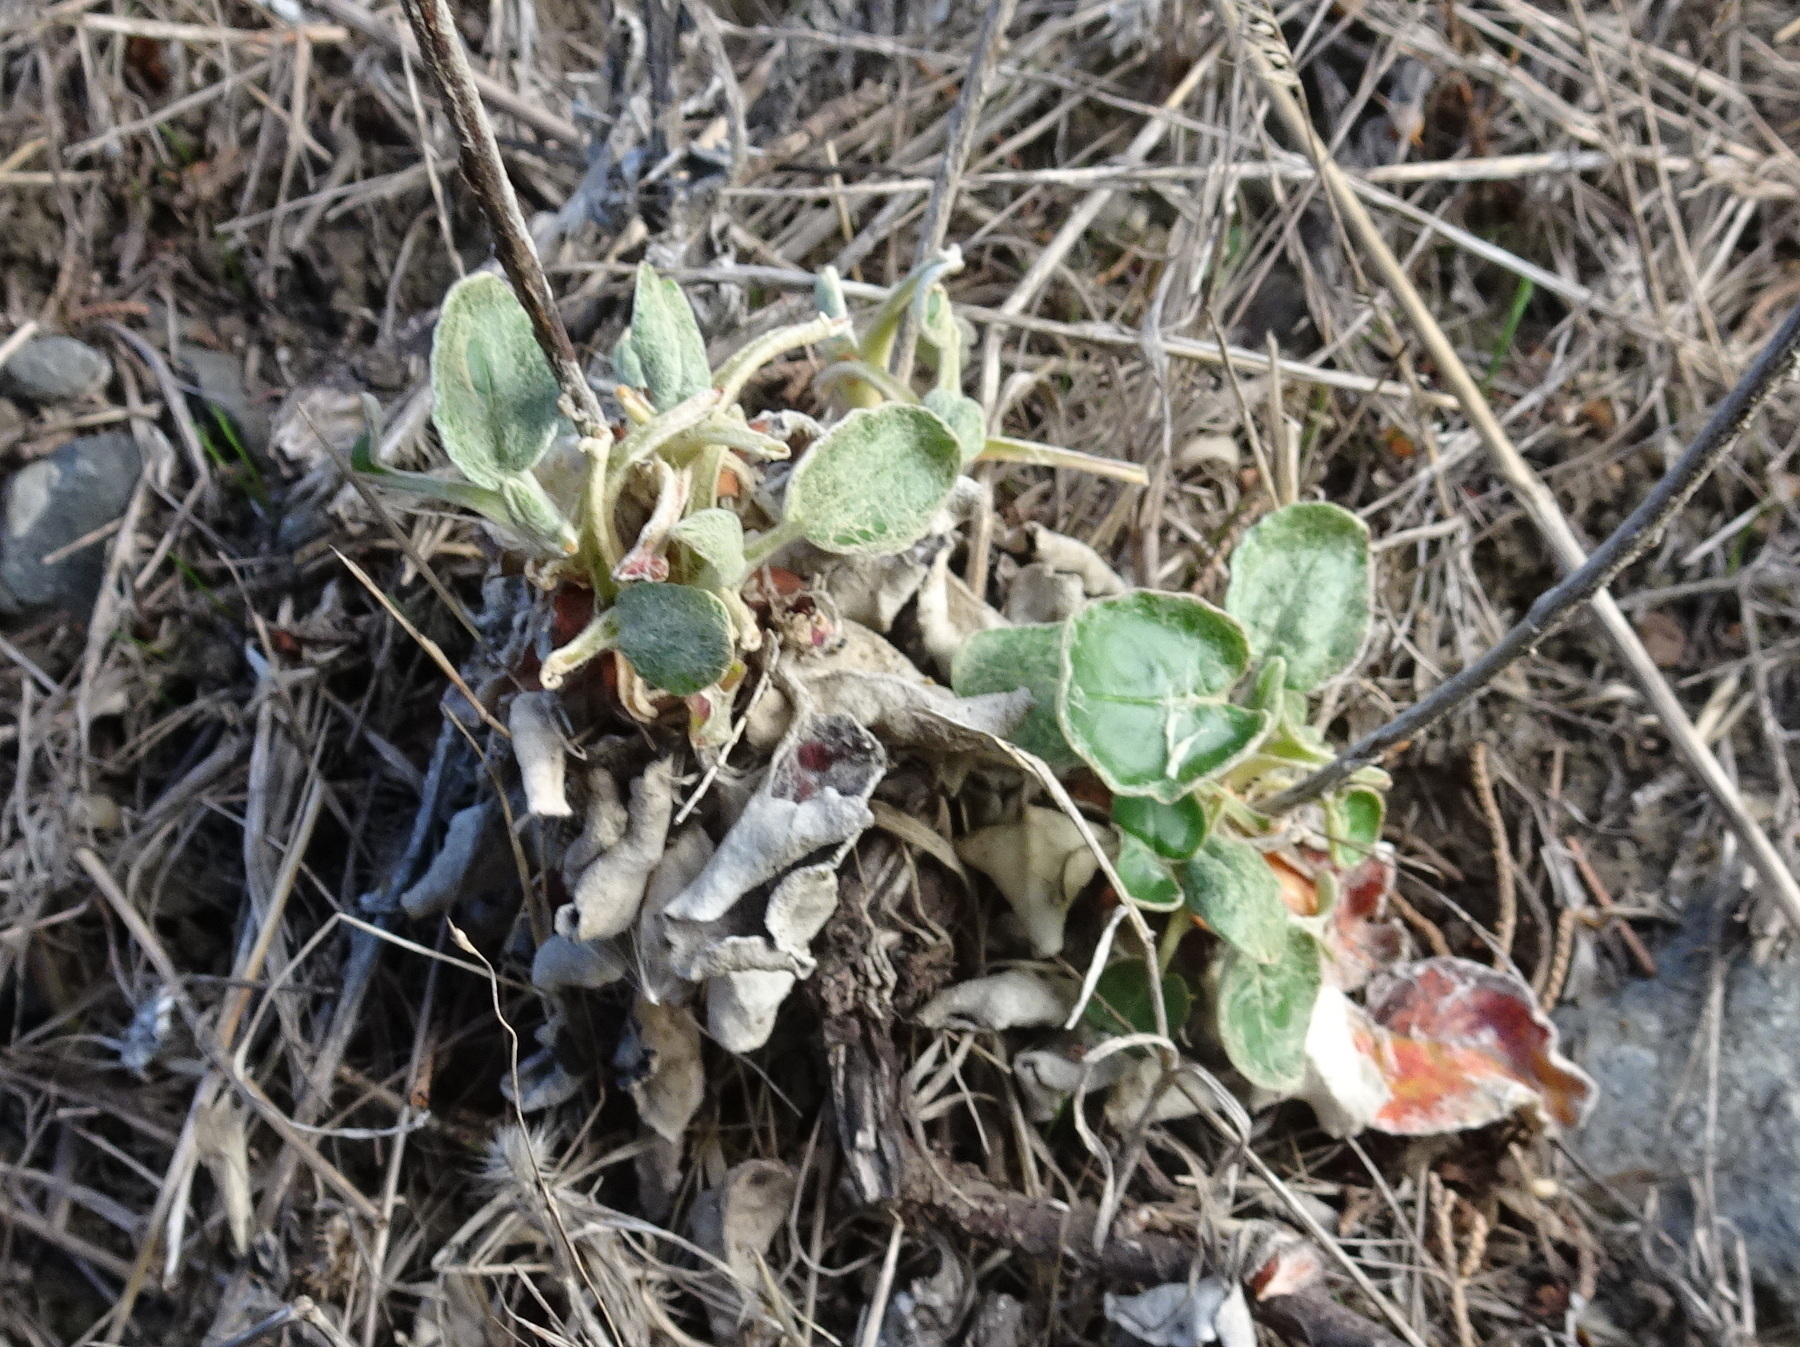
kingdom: Plantae
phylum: Tracheophyta
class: Magnoliopsida
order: Caryophyllales
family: Polygonaceae
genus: Eriogonum
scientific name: Eriogonum latifolium
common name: Seaside wild buckwheat
